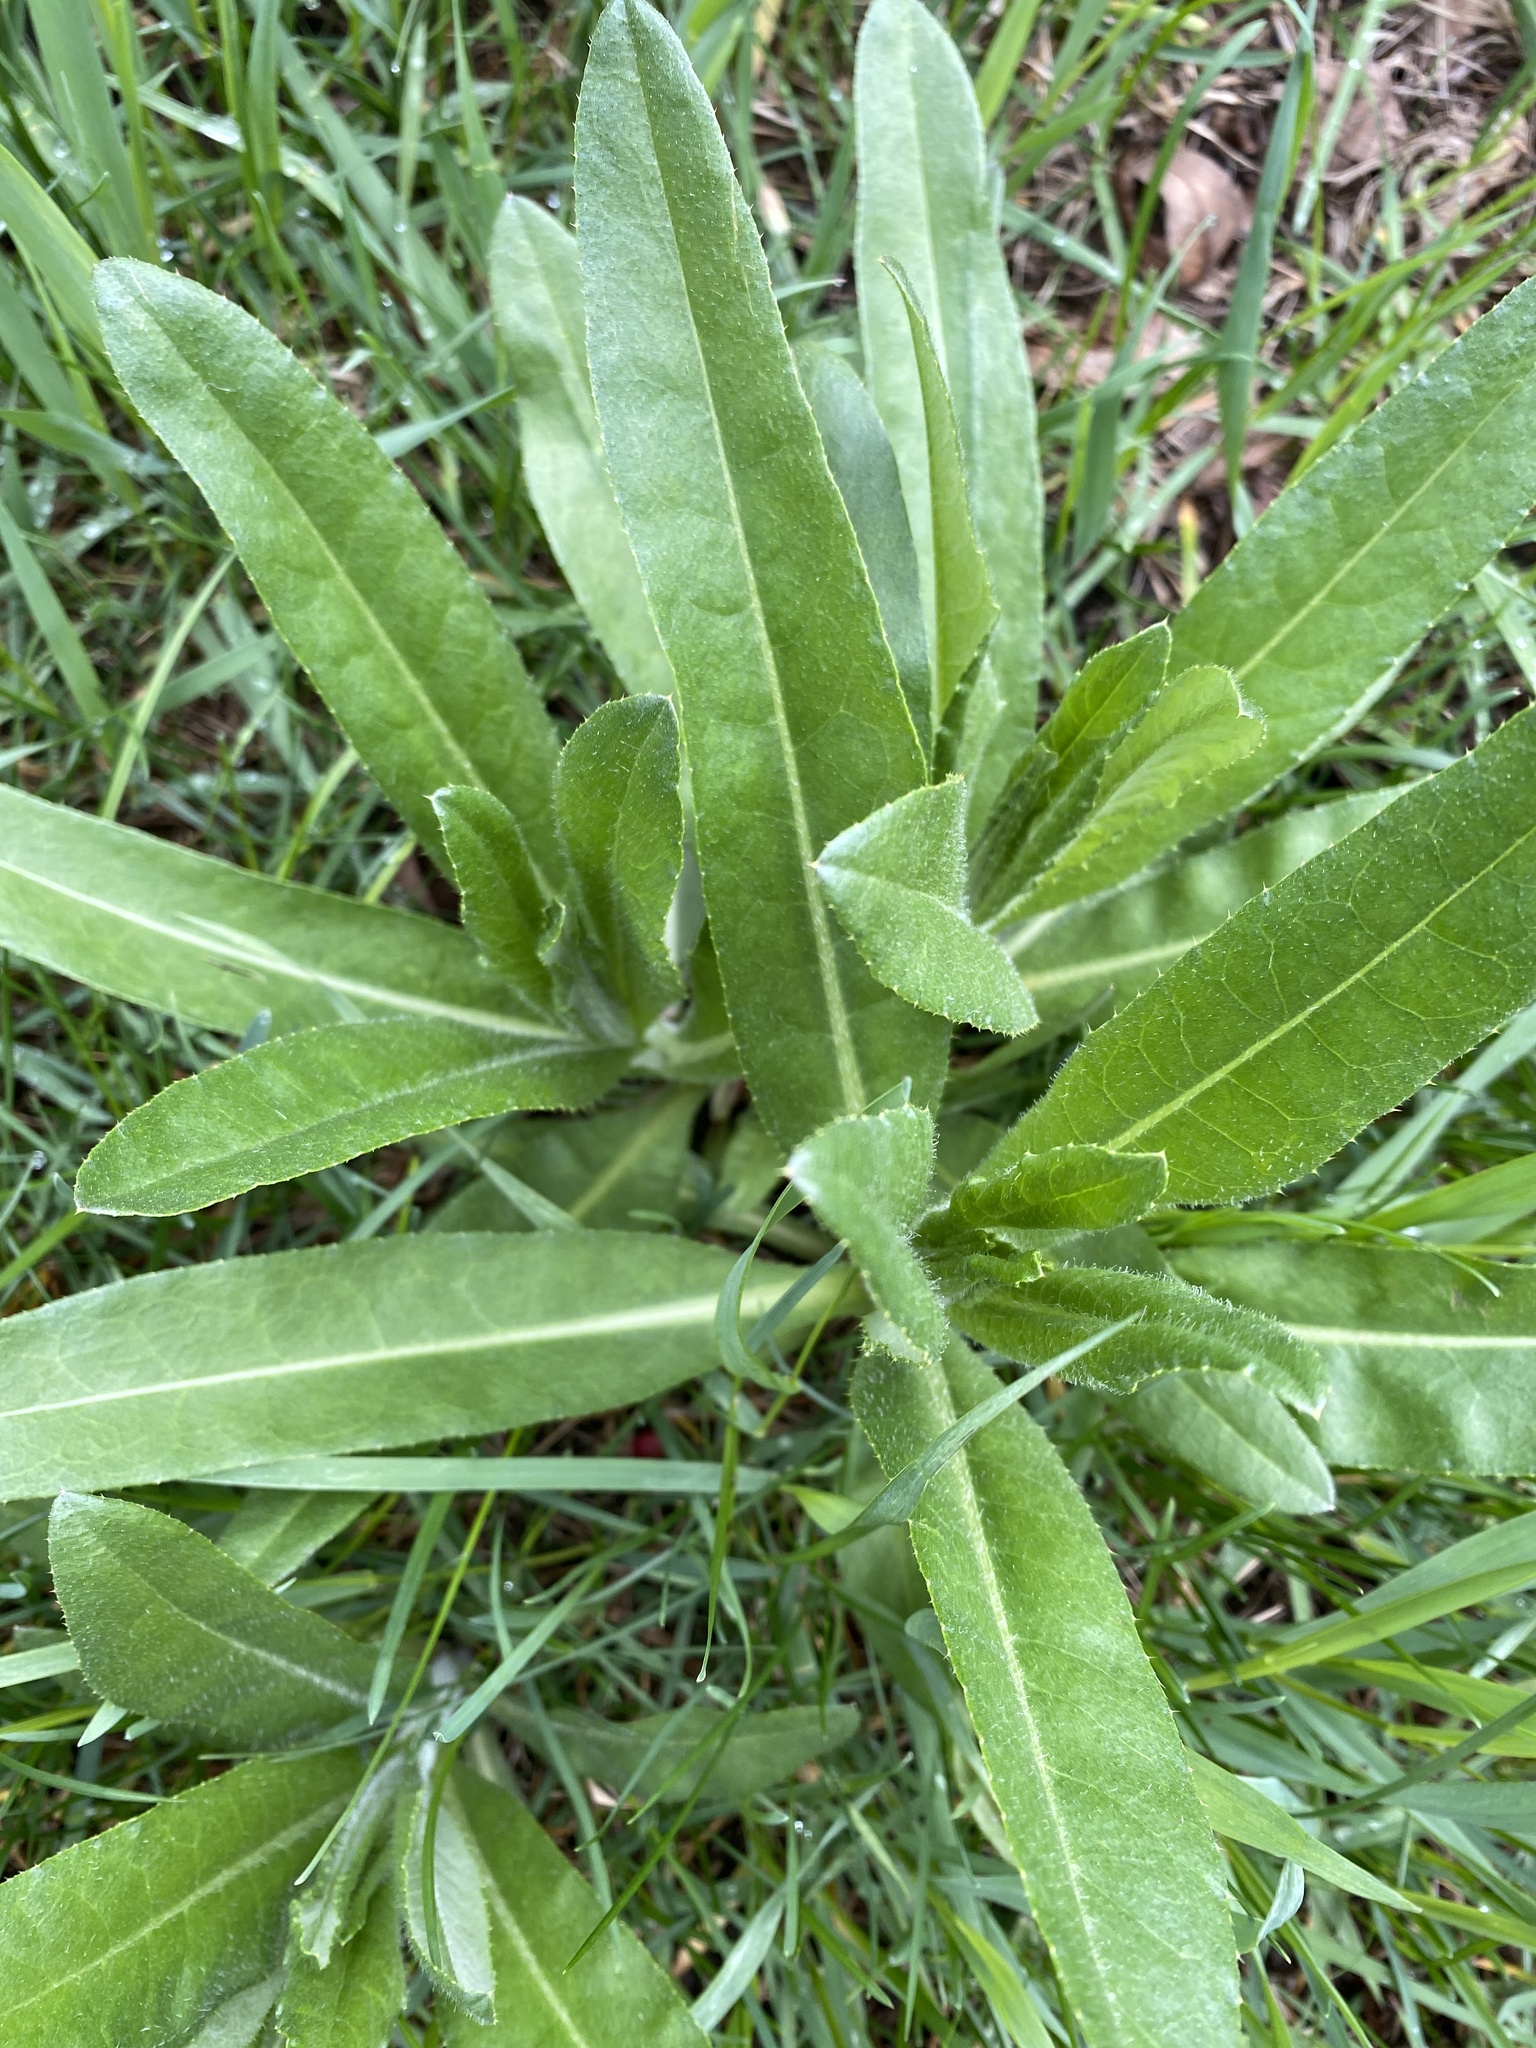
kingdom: Plantae
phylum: Tracheophyta
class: Magnoliopsida
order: Asterales
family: Asteraceae
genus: Cirsium
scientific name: Cirsium arvense
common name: Creeping thistle
